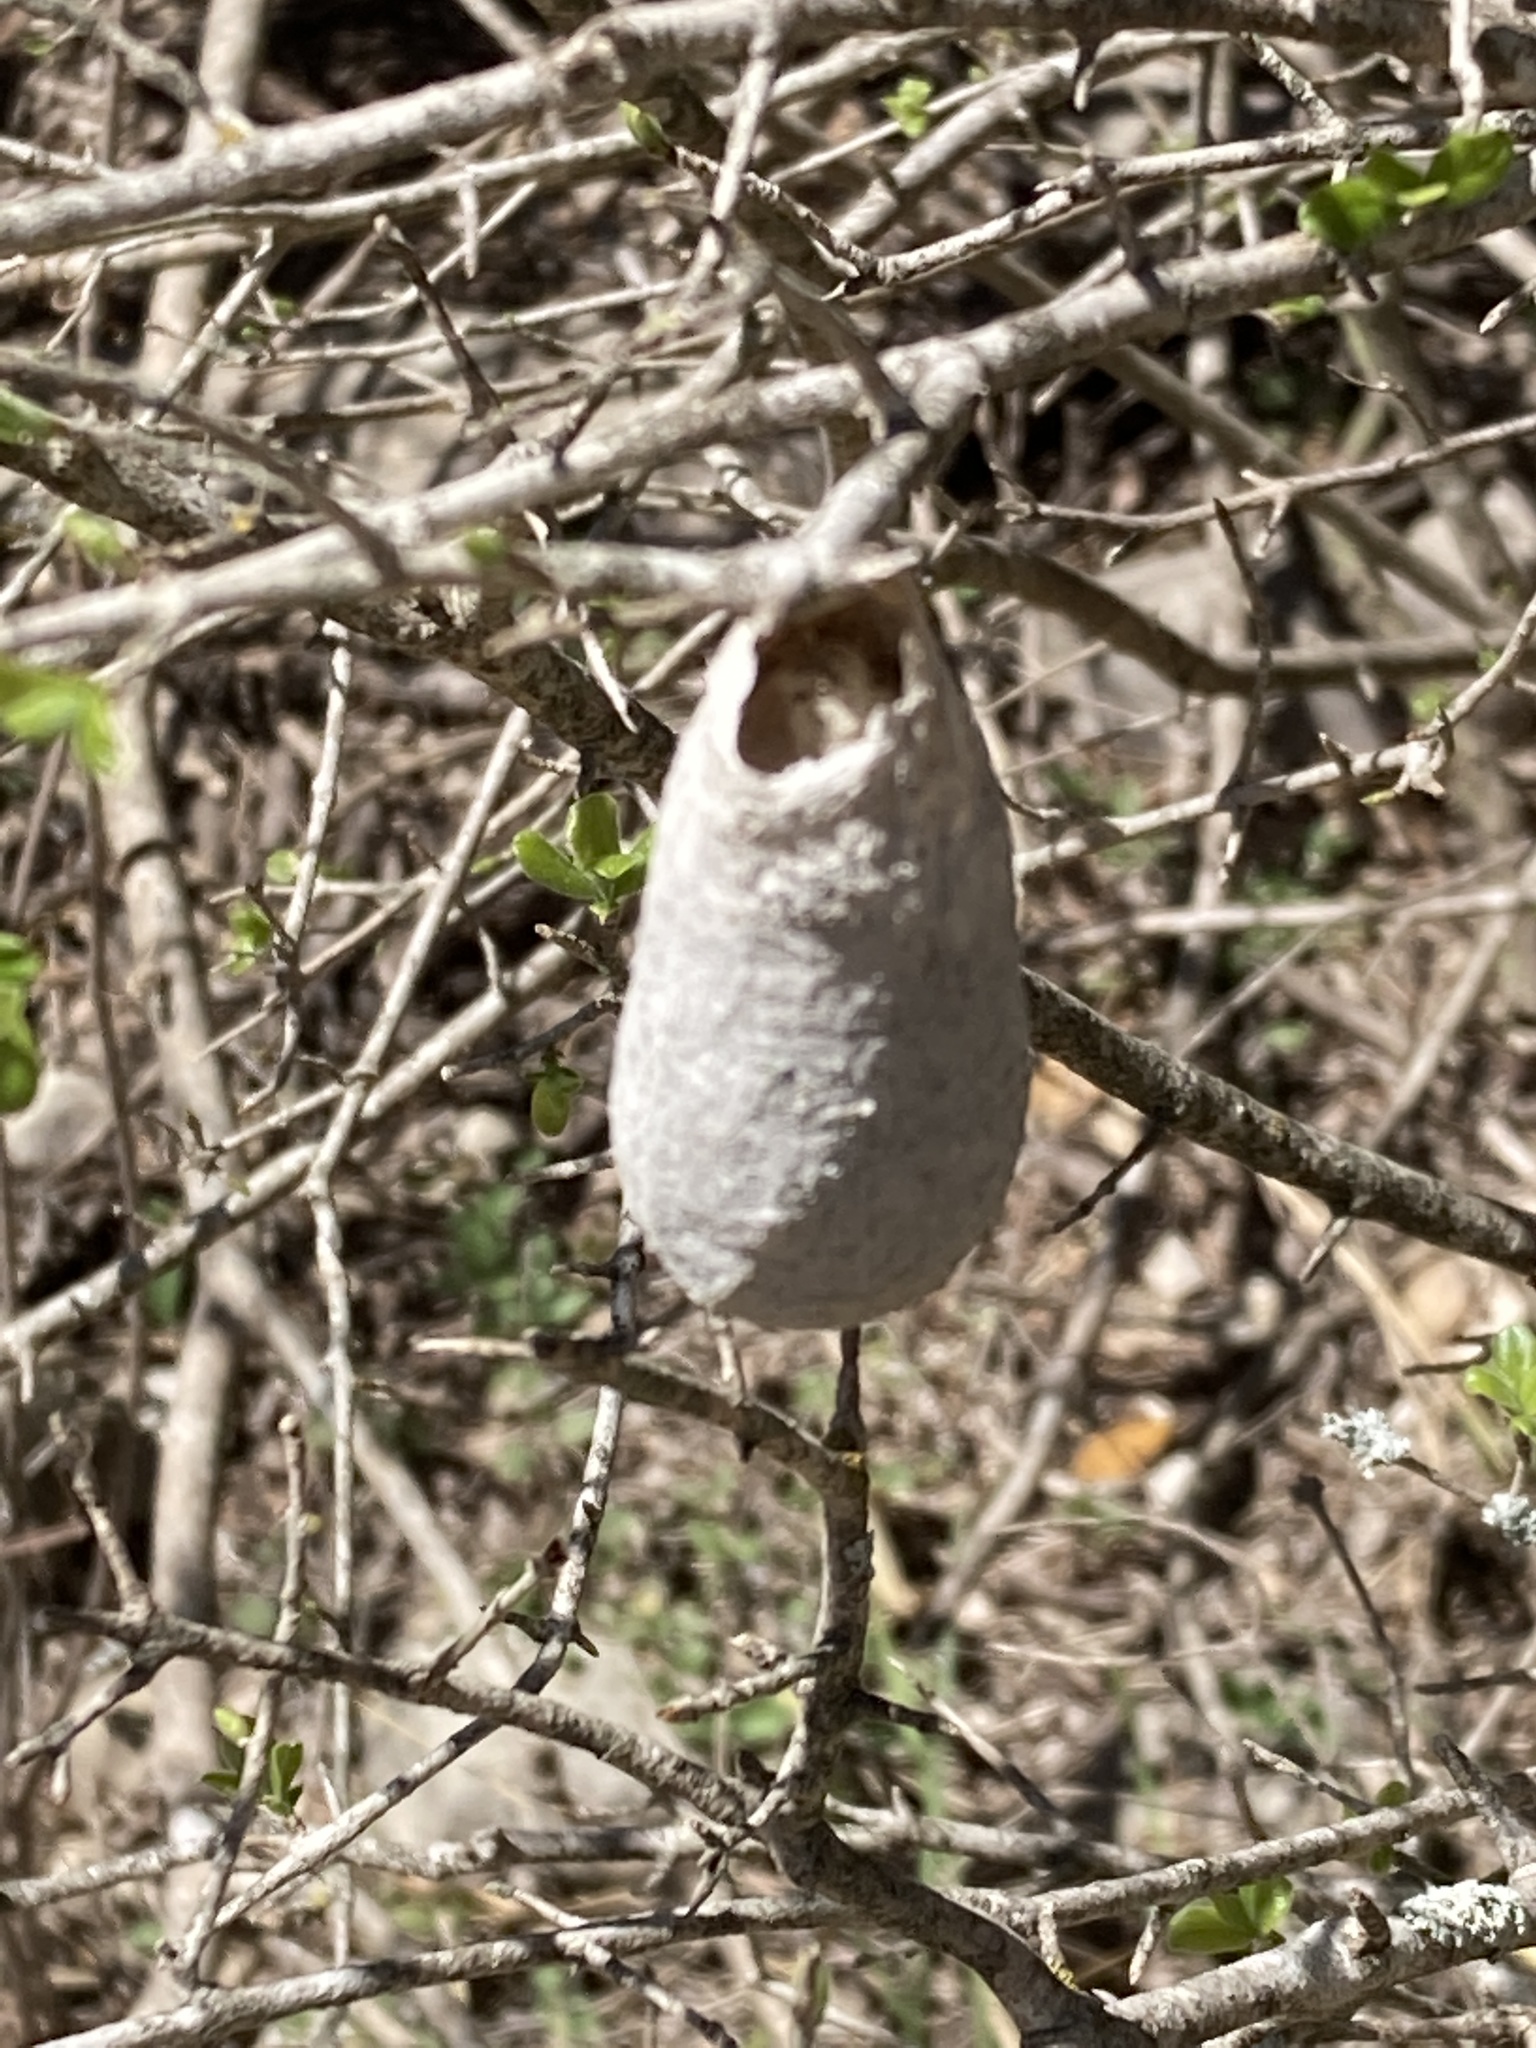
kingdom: Animalia
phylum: Arthropoda
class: Insecta
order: Lepidoptera
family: Saturniidae
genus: Eupackardia
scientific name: Eupackardia calleta
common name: Calleta silkmoth
